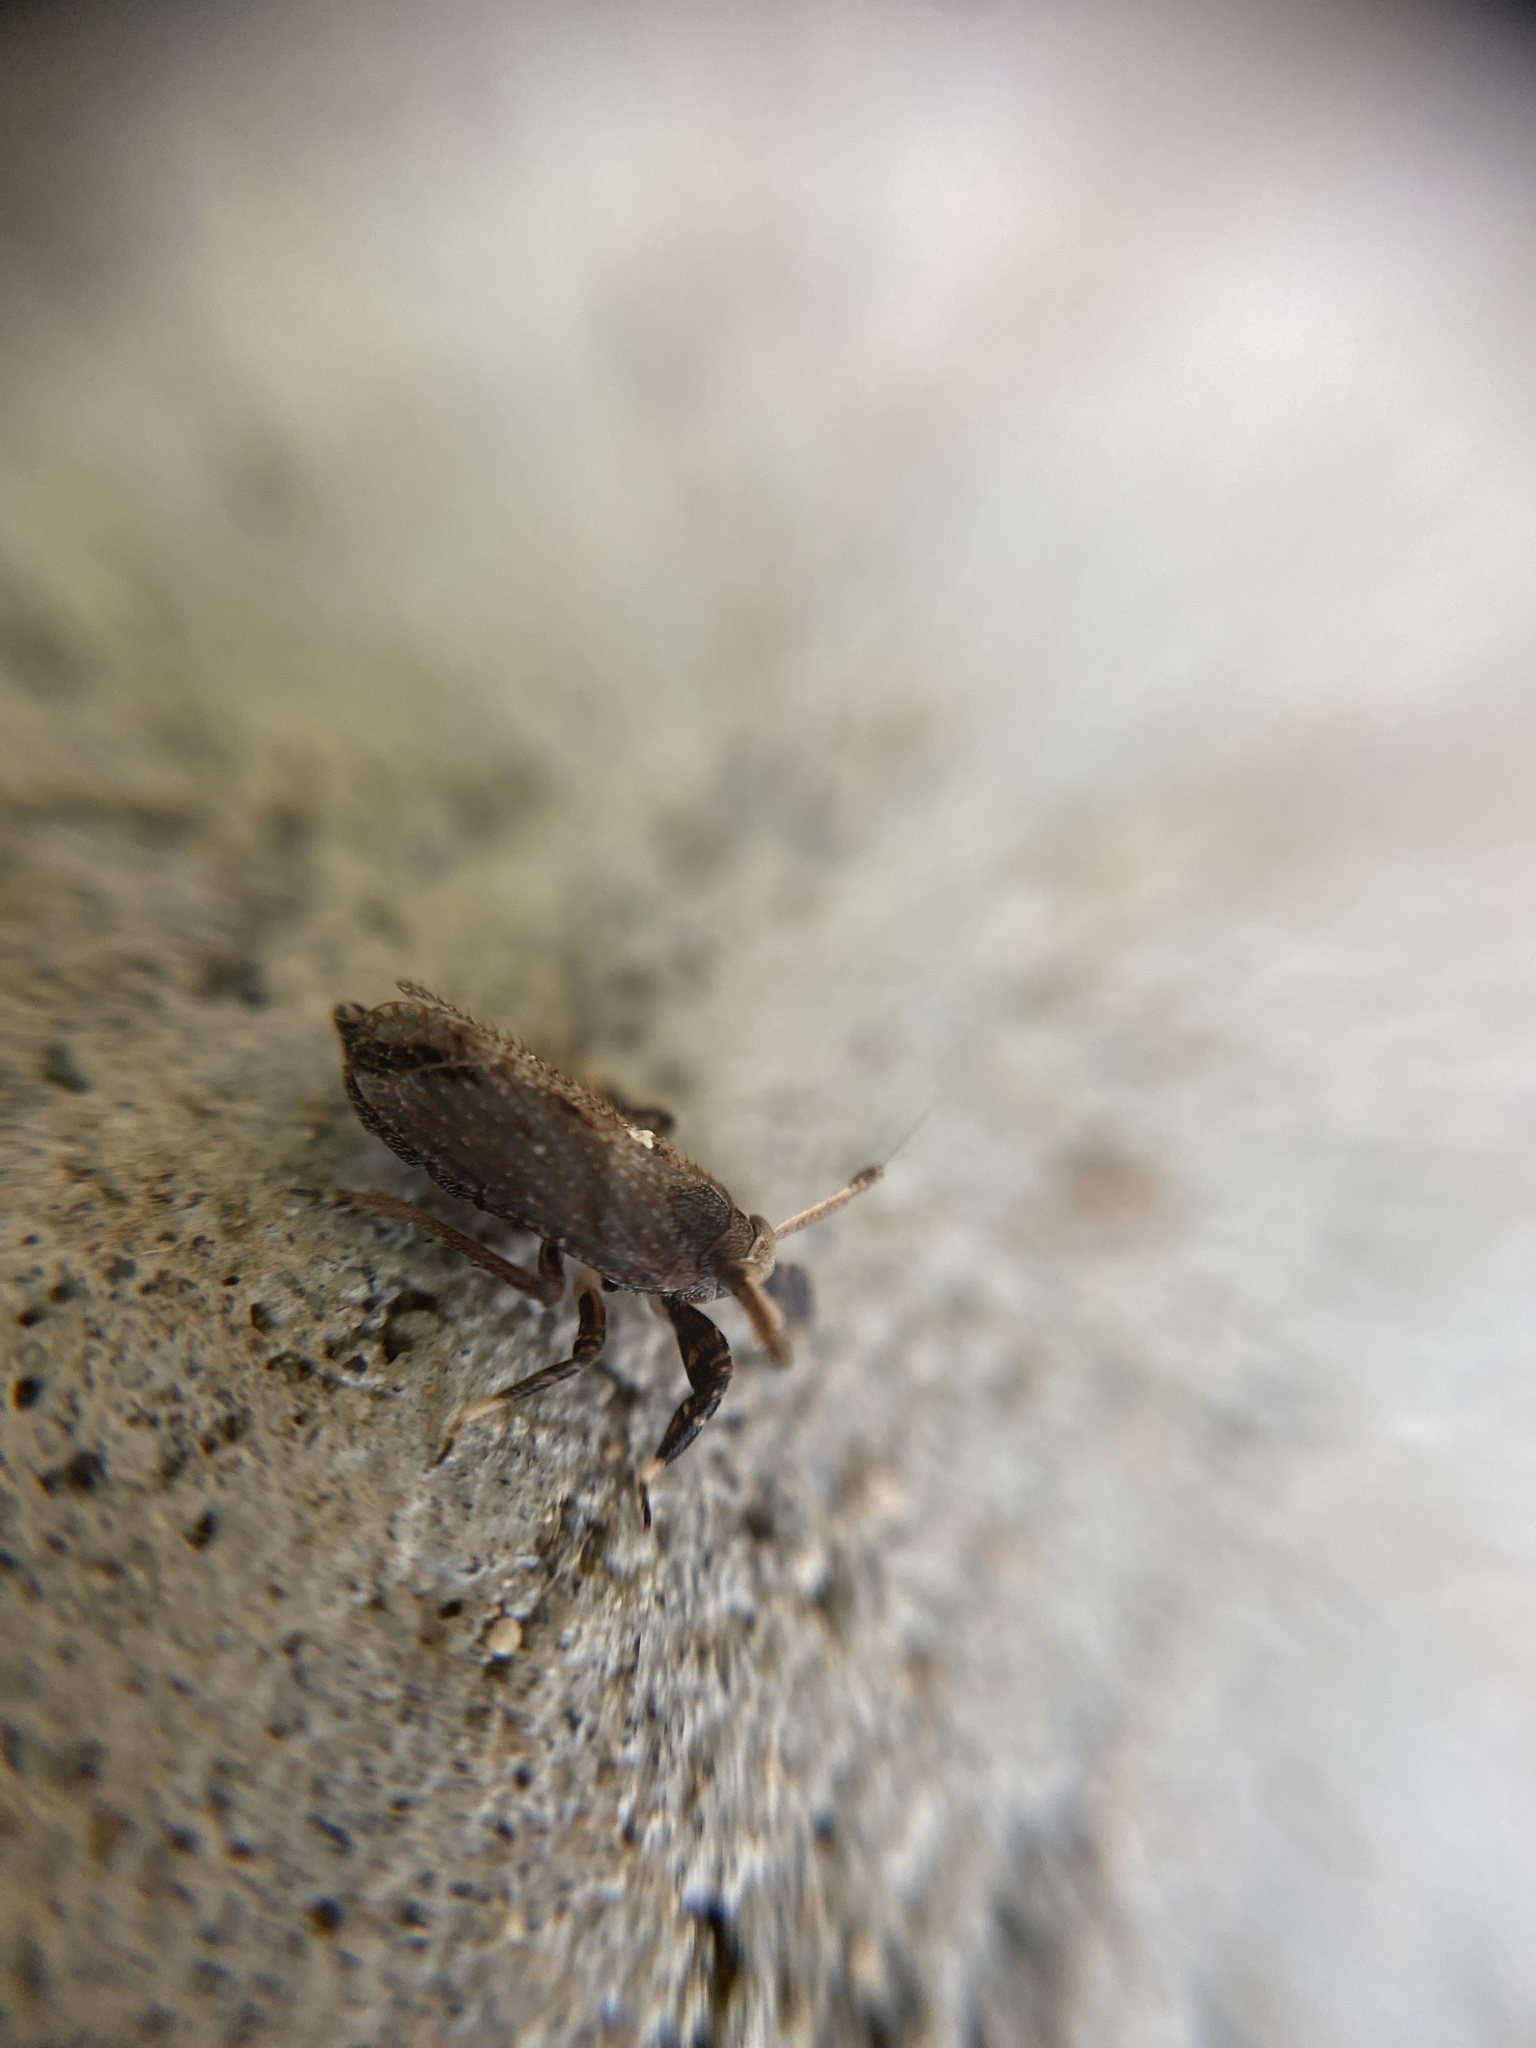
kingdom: Animalia
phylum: Arthropoda
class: Insecta
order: Hemiptera
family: Delphacidae
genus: Asiraca
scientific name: Asiraca clavicornis
